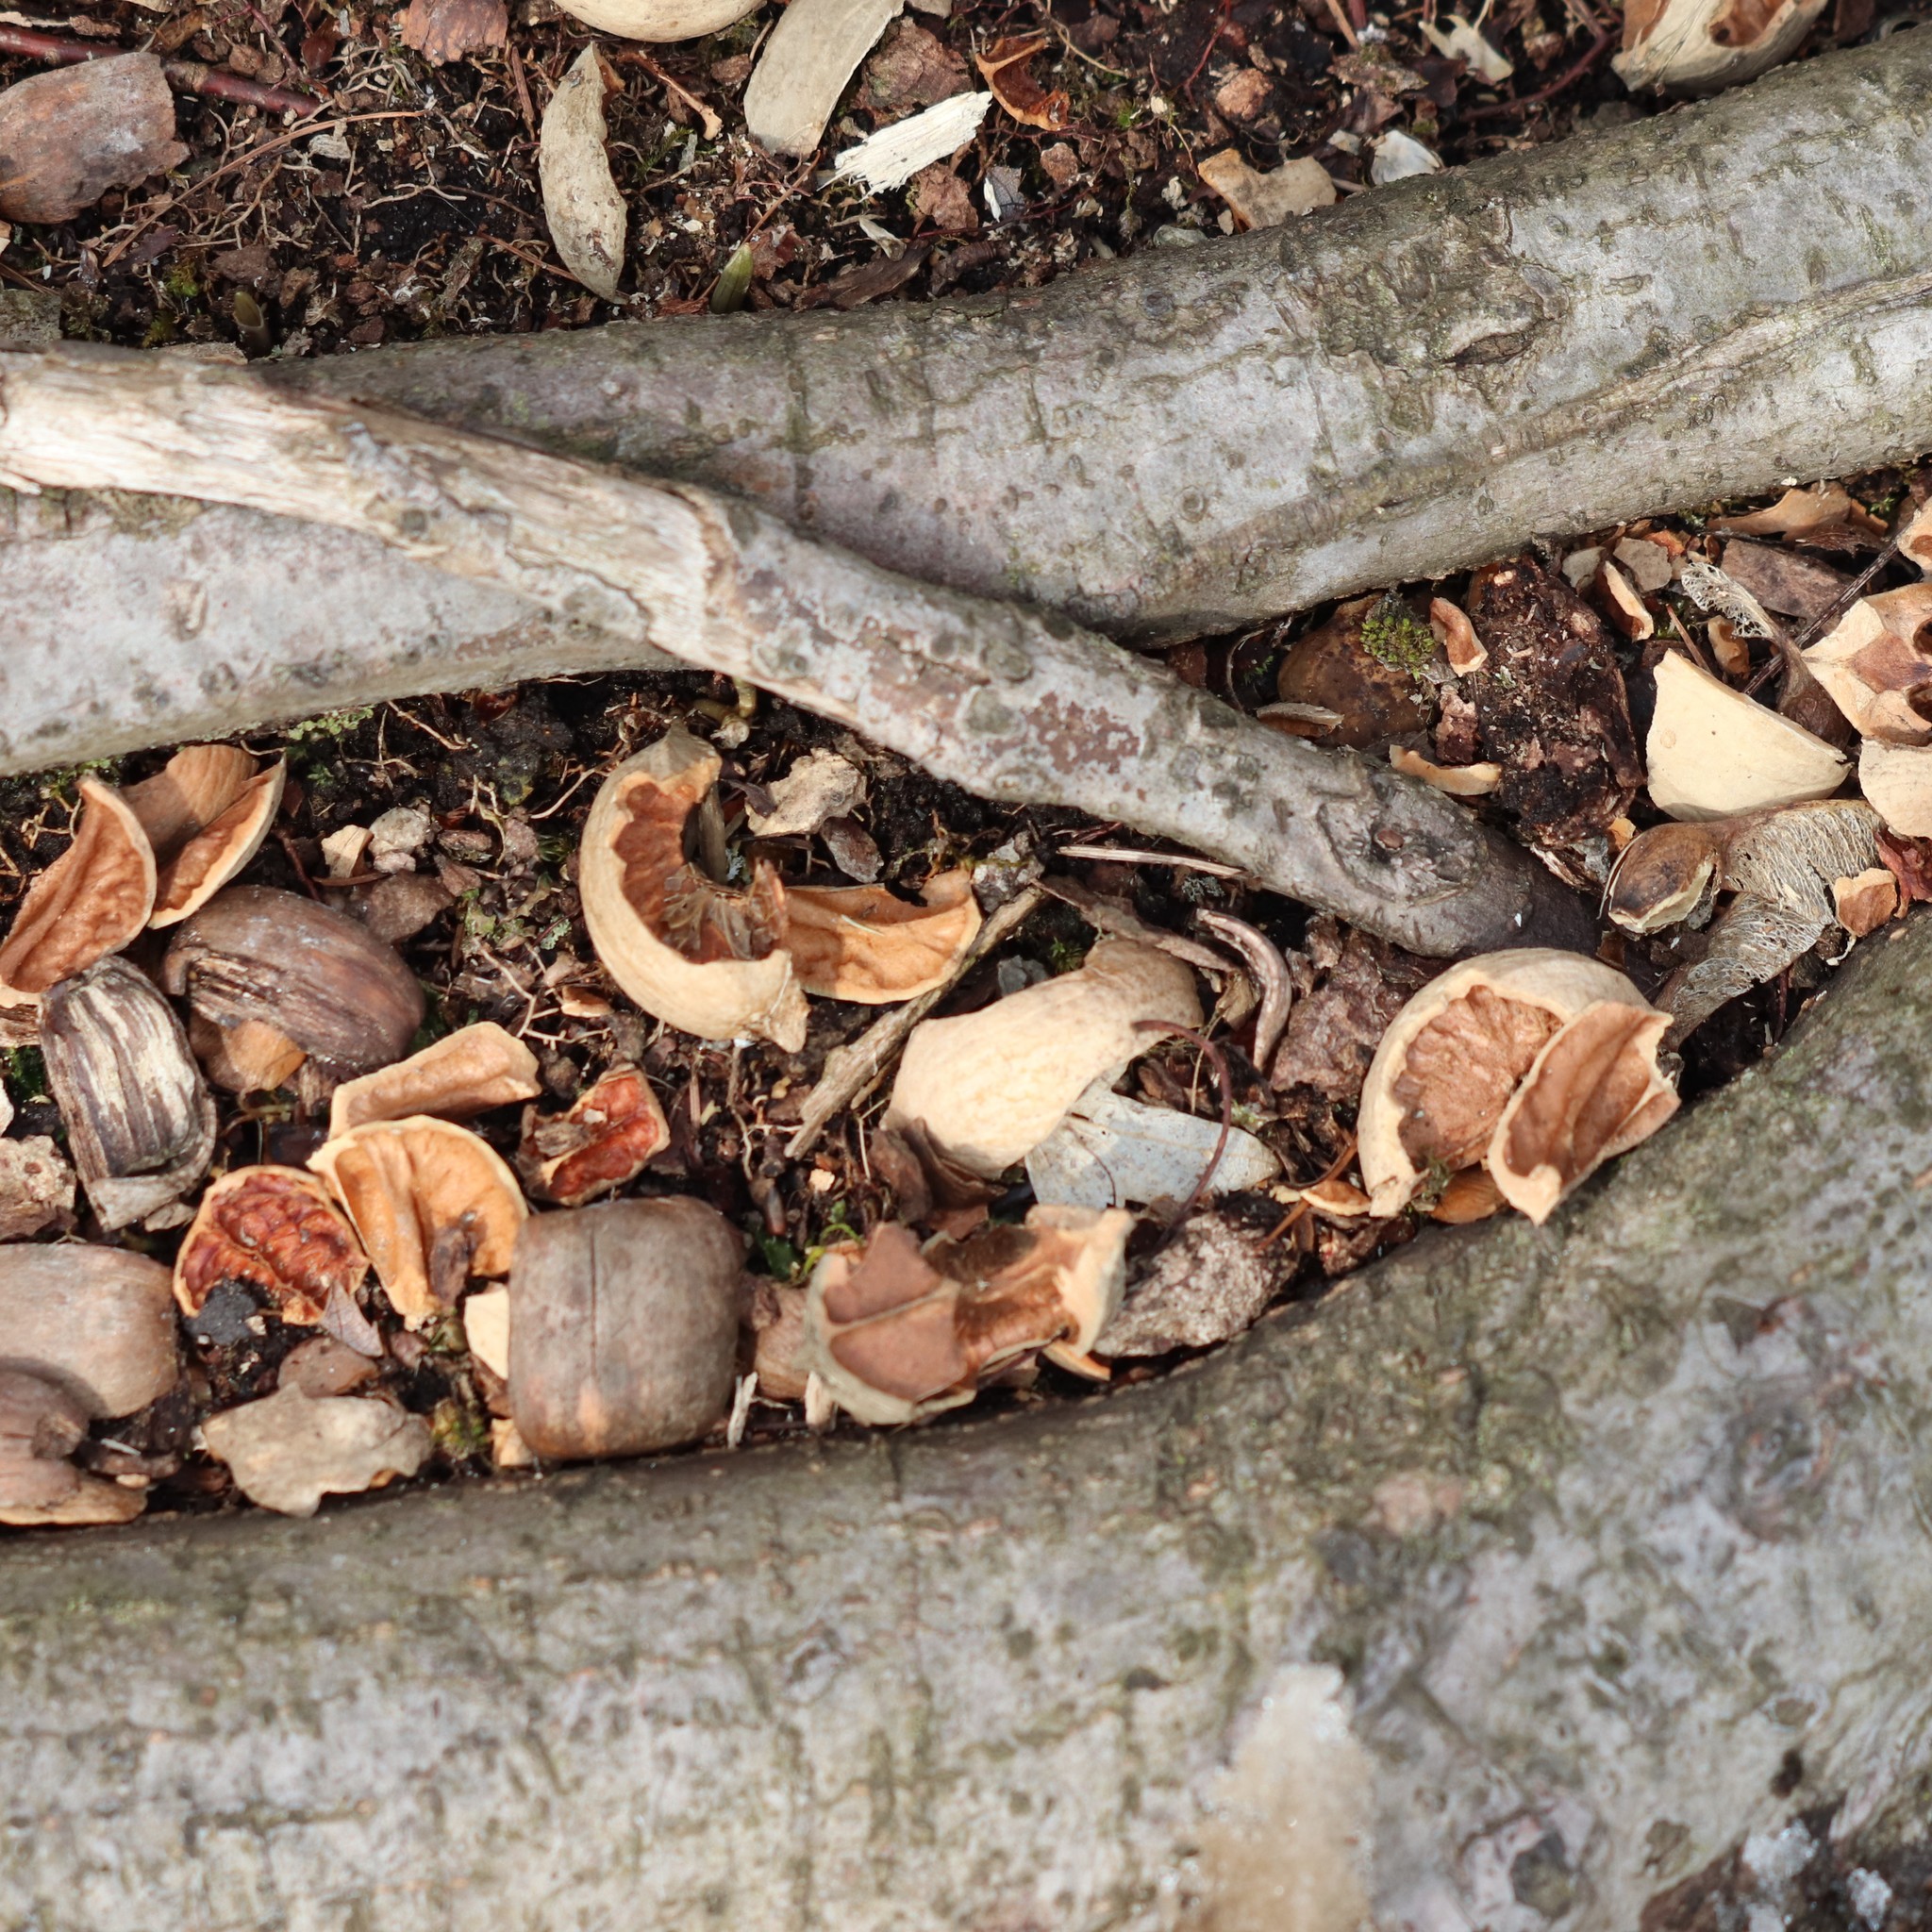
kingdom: Animalia
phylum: Chordata
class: Mammalia
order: Rodentia
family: Sciuridae
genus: Sciurus
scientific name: Sciurus carolinensis
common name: Eastern gray squirrel
